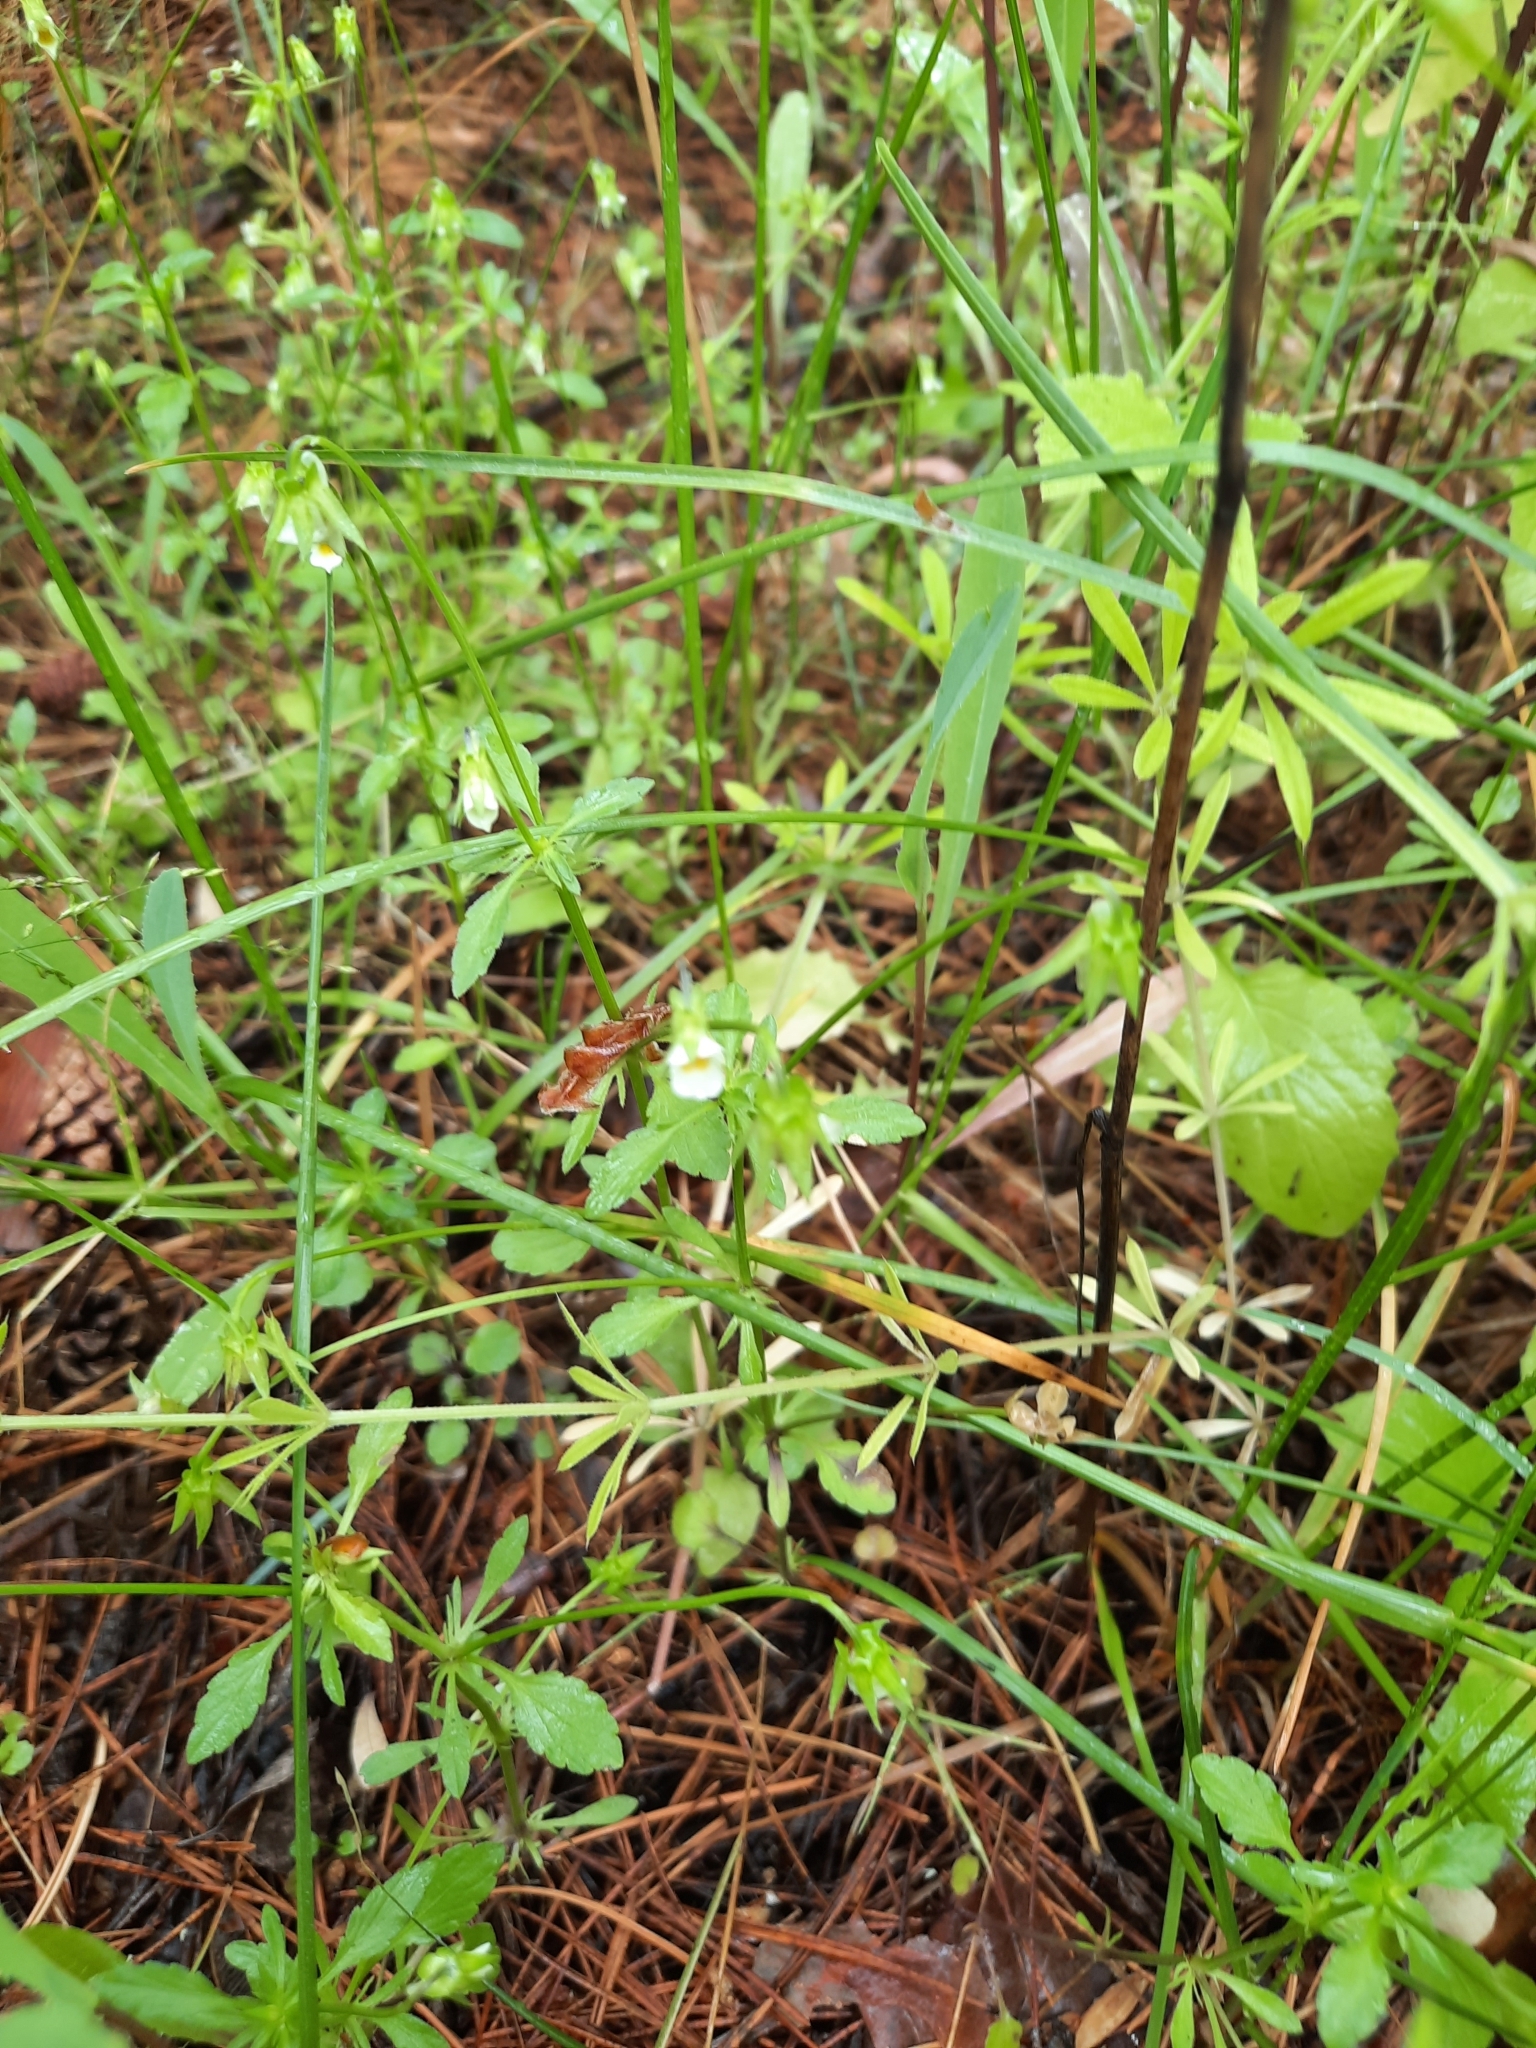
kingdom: Plantae
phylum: Tracheophyta
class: Magnoliopsida
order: Malpighiales
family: Violaceae
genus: Viola
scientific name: Viola arvensis
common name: Field pansy
